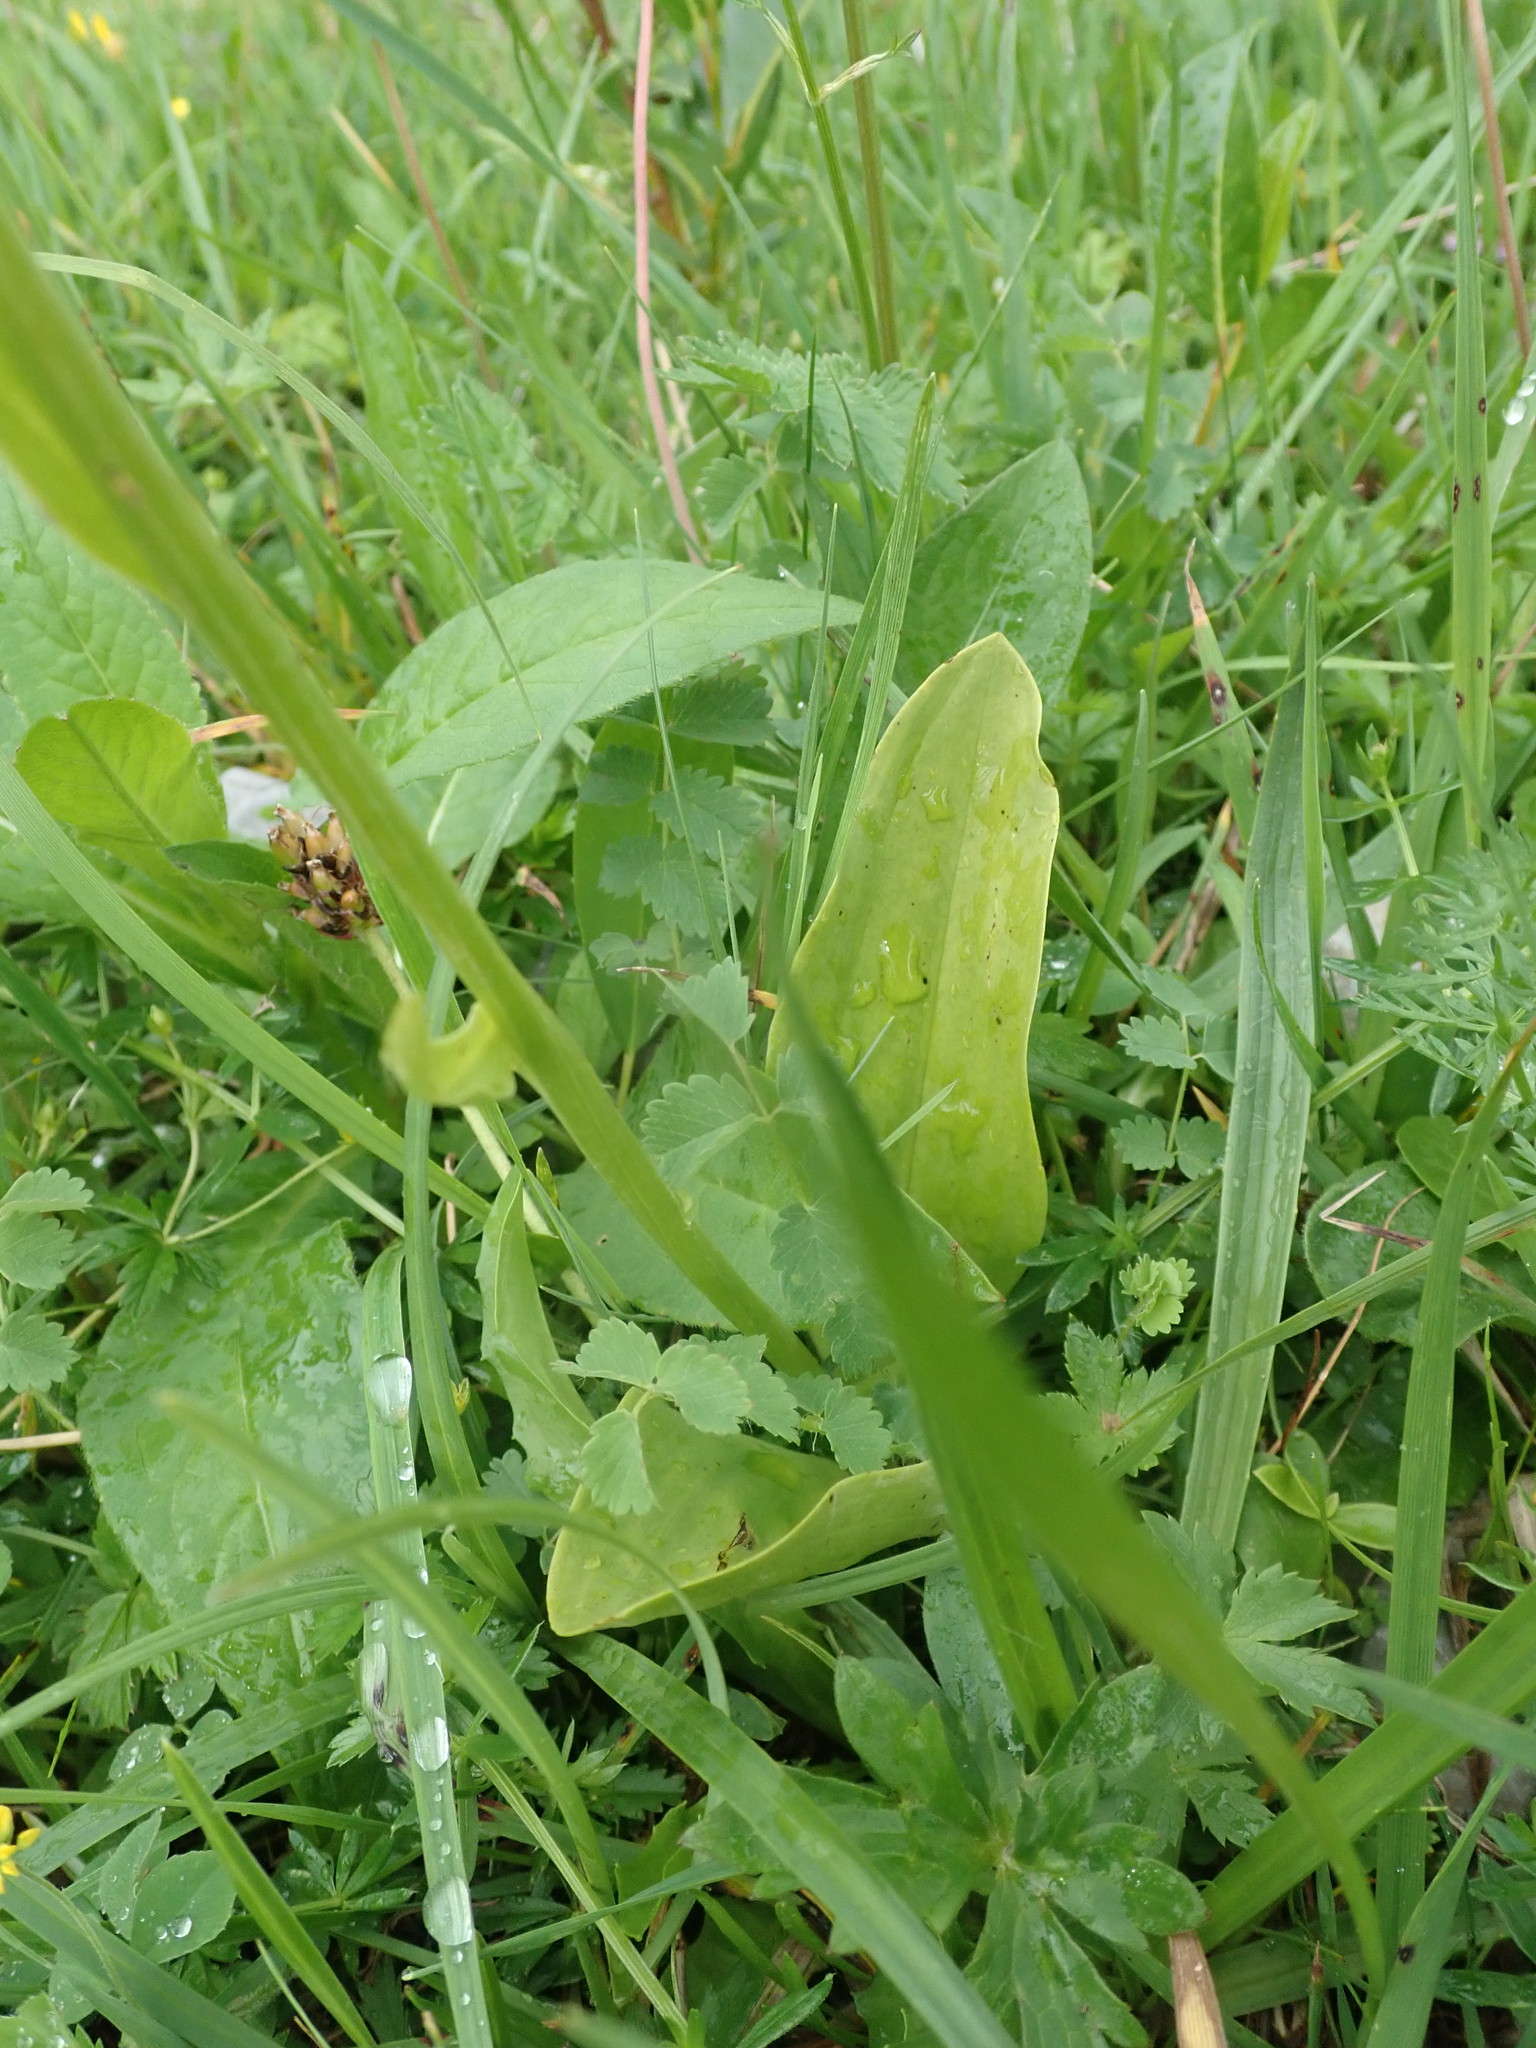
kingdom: Plantae
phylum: Tracheophyta
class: Liliopsida
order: Asparagales
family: Orchidaceae
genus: Platanthera
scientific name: Platanthera chlorantha
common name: Greater butterfly-orchid
